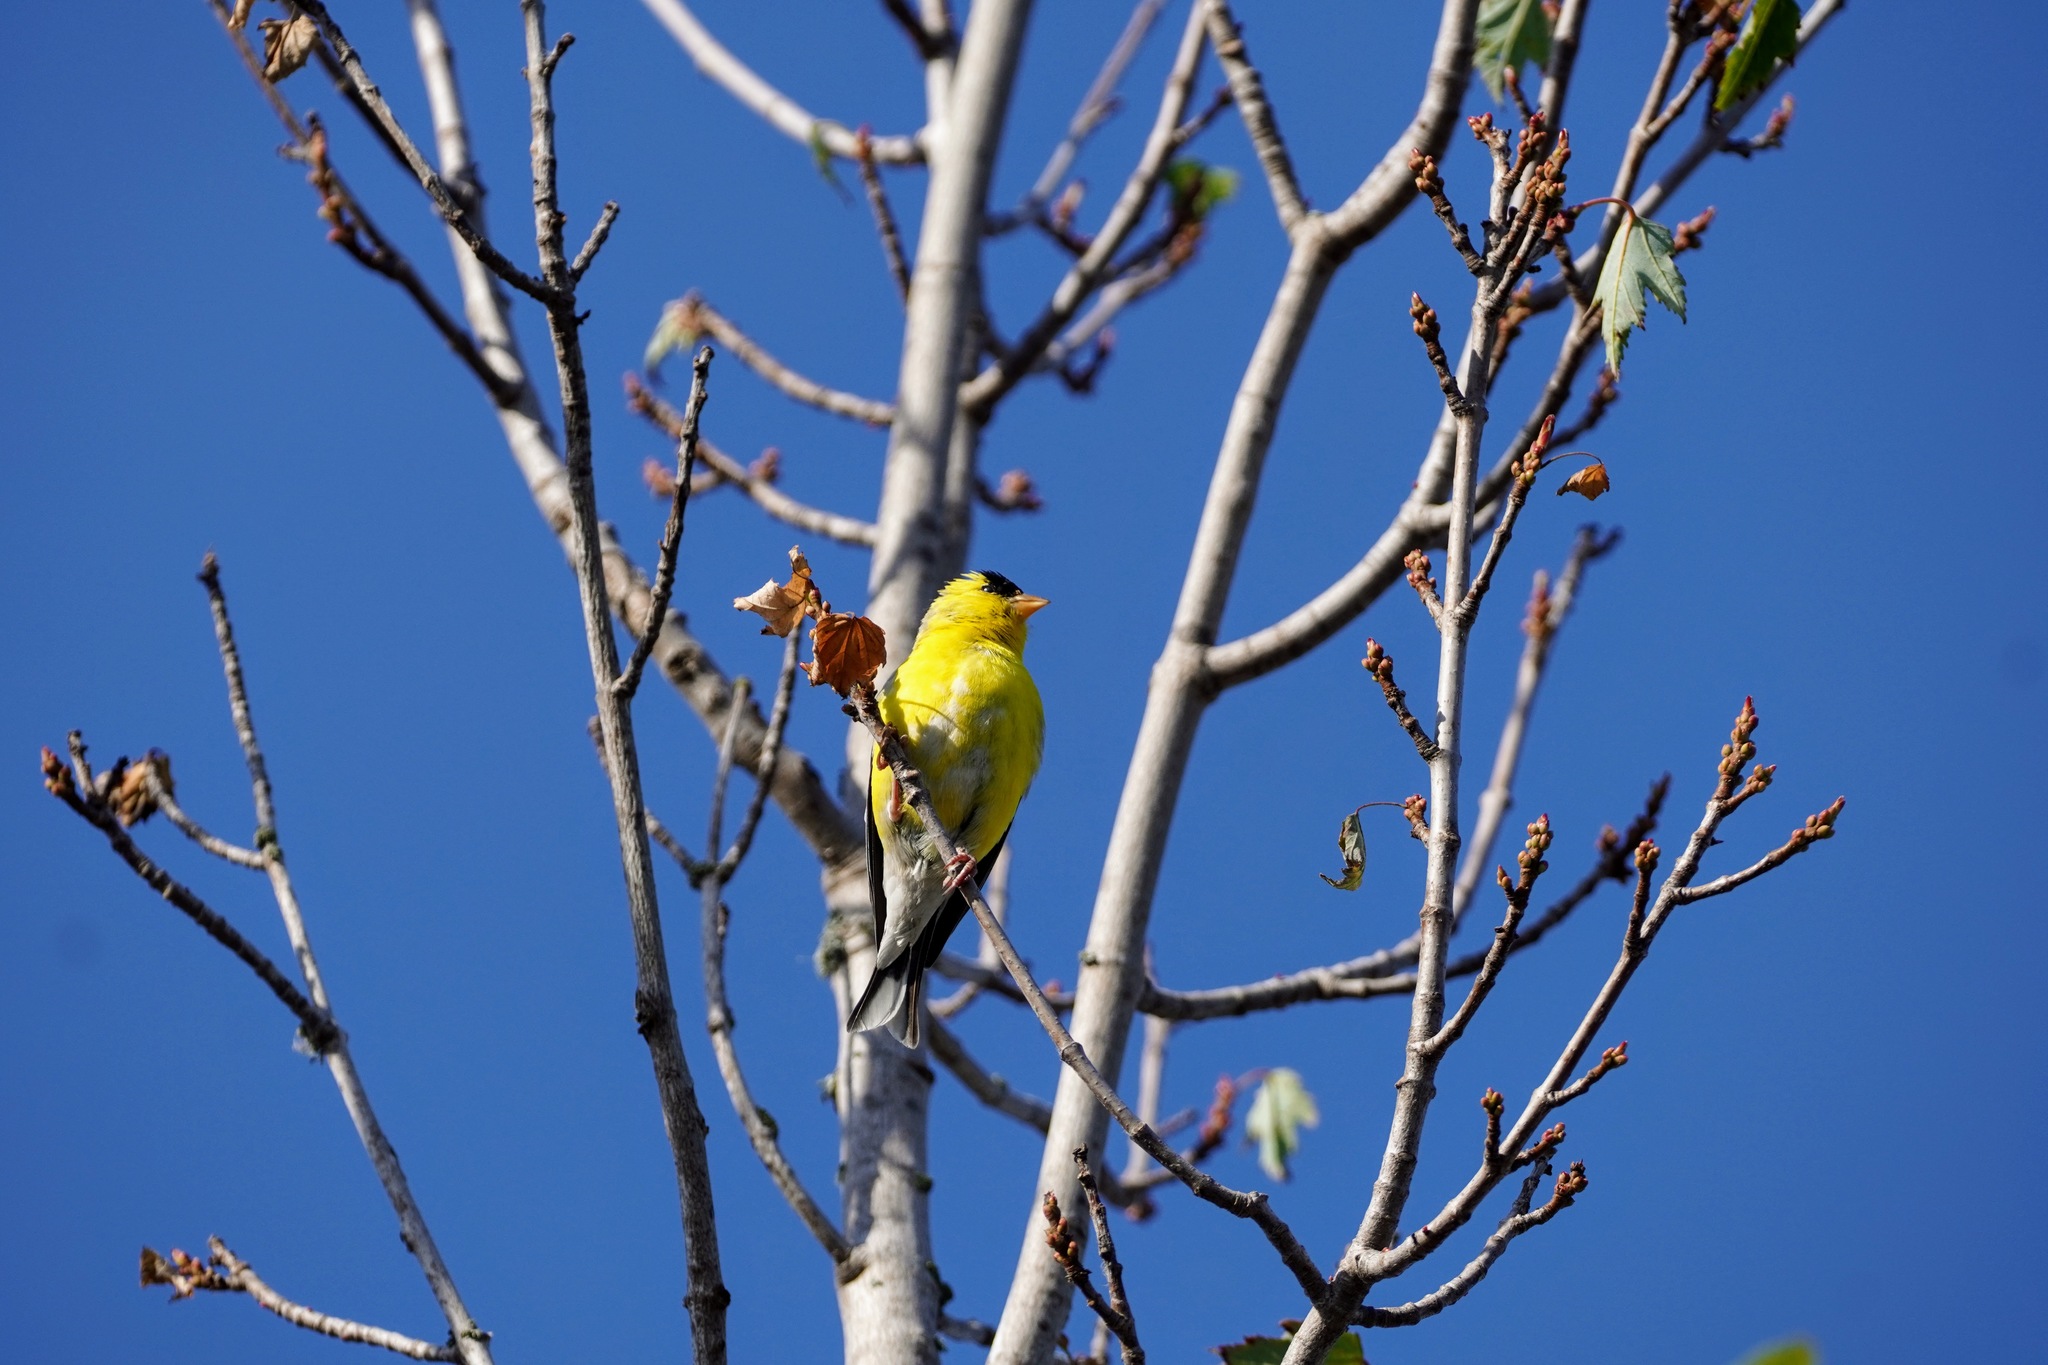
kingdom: Animalia
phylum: Chordata
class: Aves
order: Passeriformes
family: Fringillidae
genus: Spinus
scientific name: Spinus tristis
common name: American goldfinch
